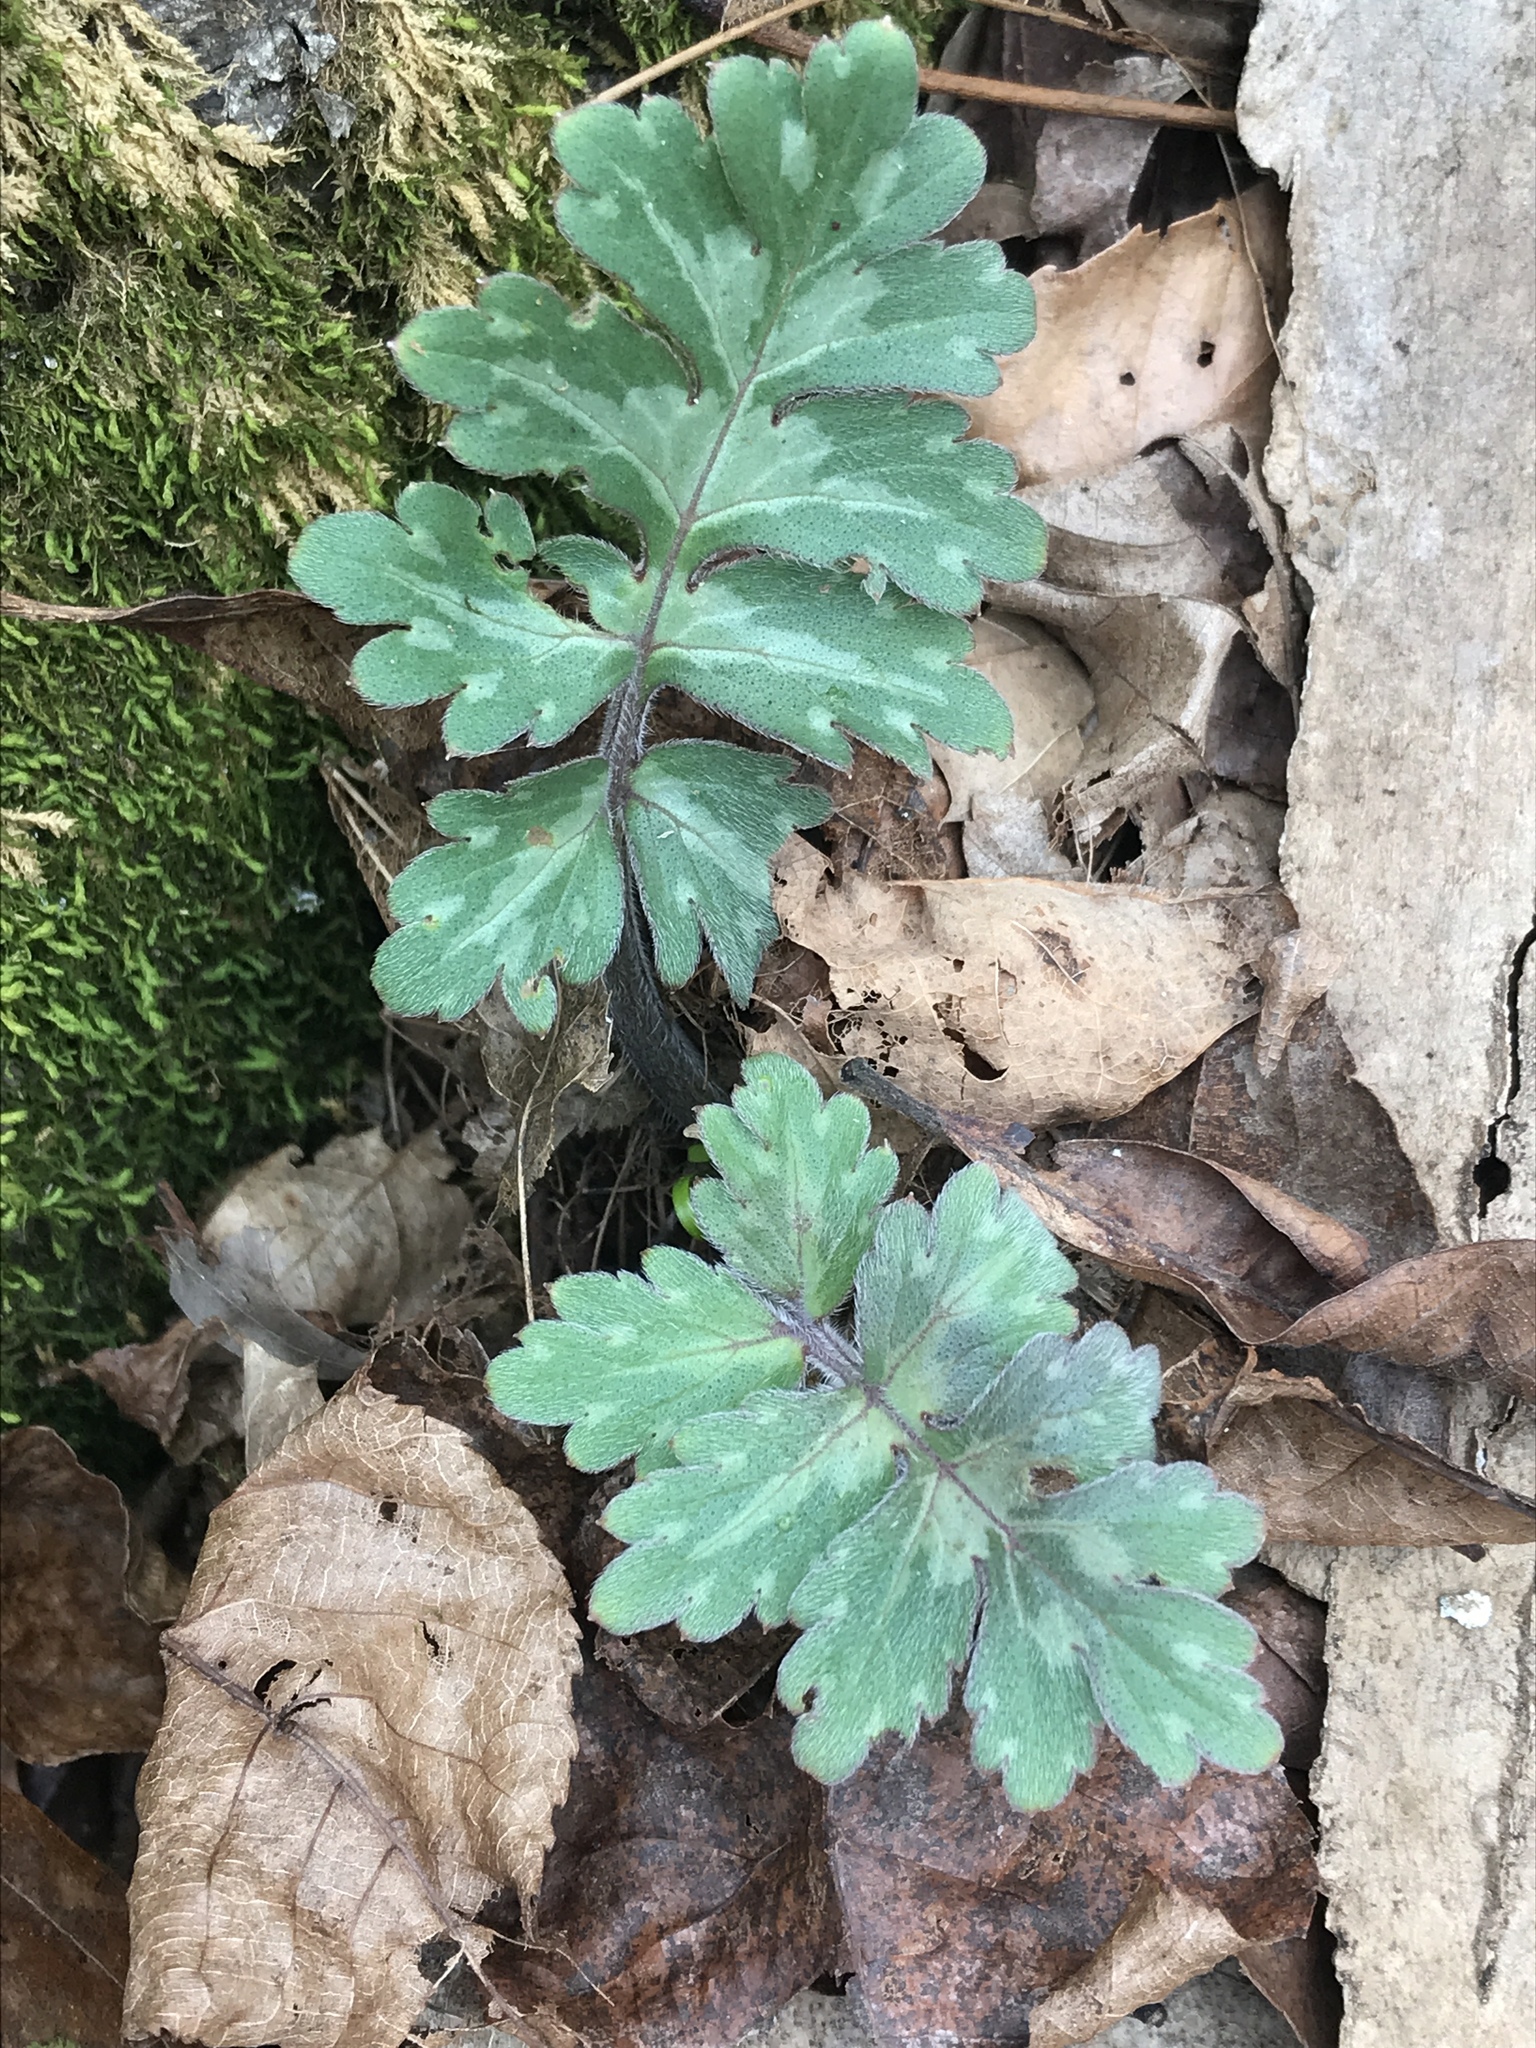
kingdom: Plantae
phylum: Tracheophyta
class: Magnoliopsida
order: Boraginales
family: Hydrophyllaceae
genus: Hydrophyllum
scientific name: Hydrophyllum macrophyllum
